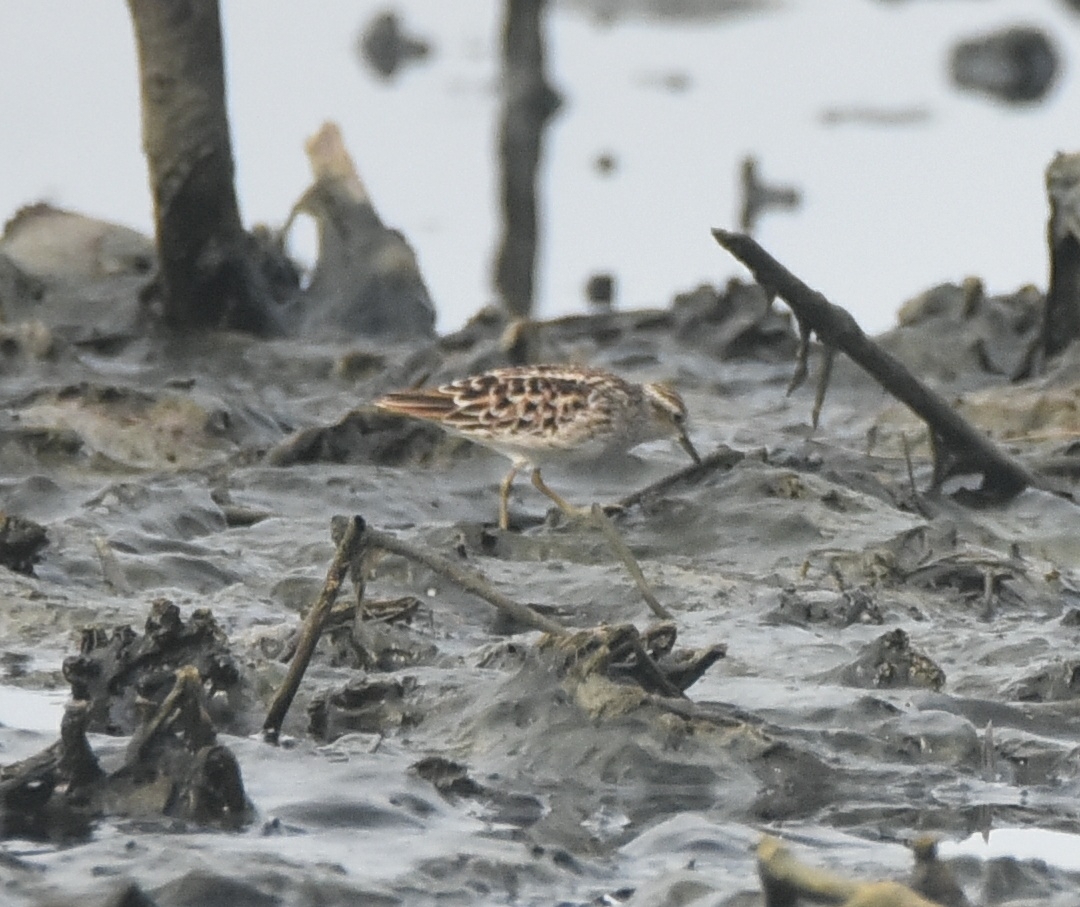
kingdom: Animalia
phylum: Chordata
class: Aves
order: Charadriiformes
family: Scolopacidae
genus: Calidris
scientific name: Calidris subminuta
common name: Long-toed stint
